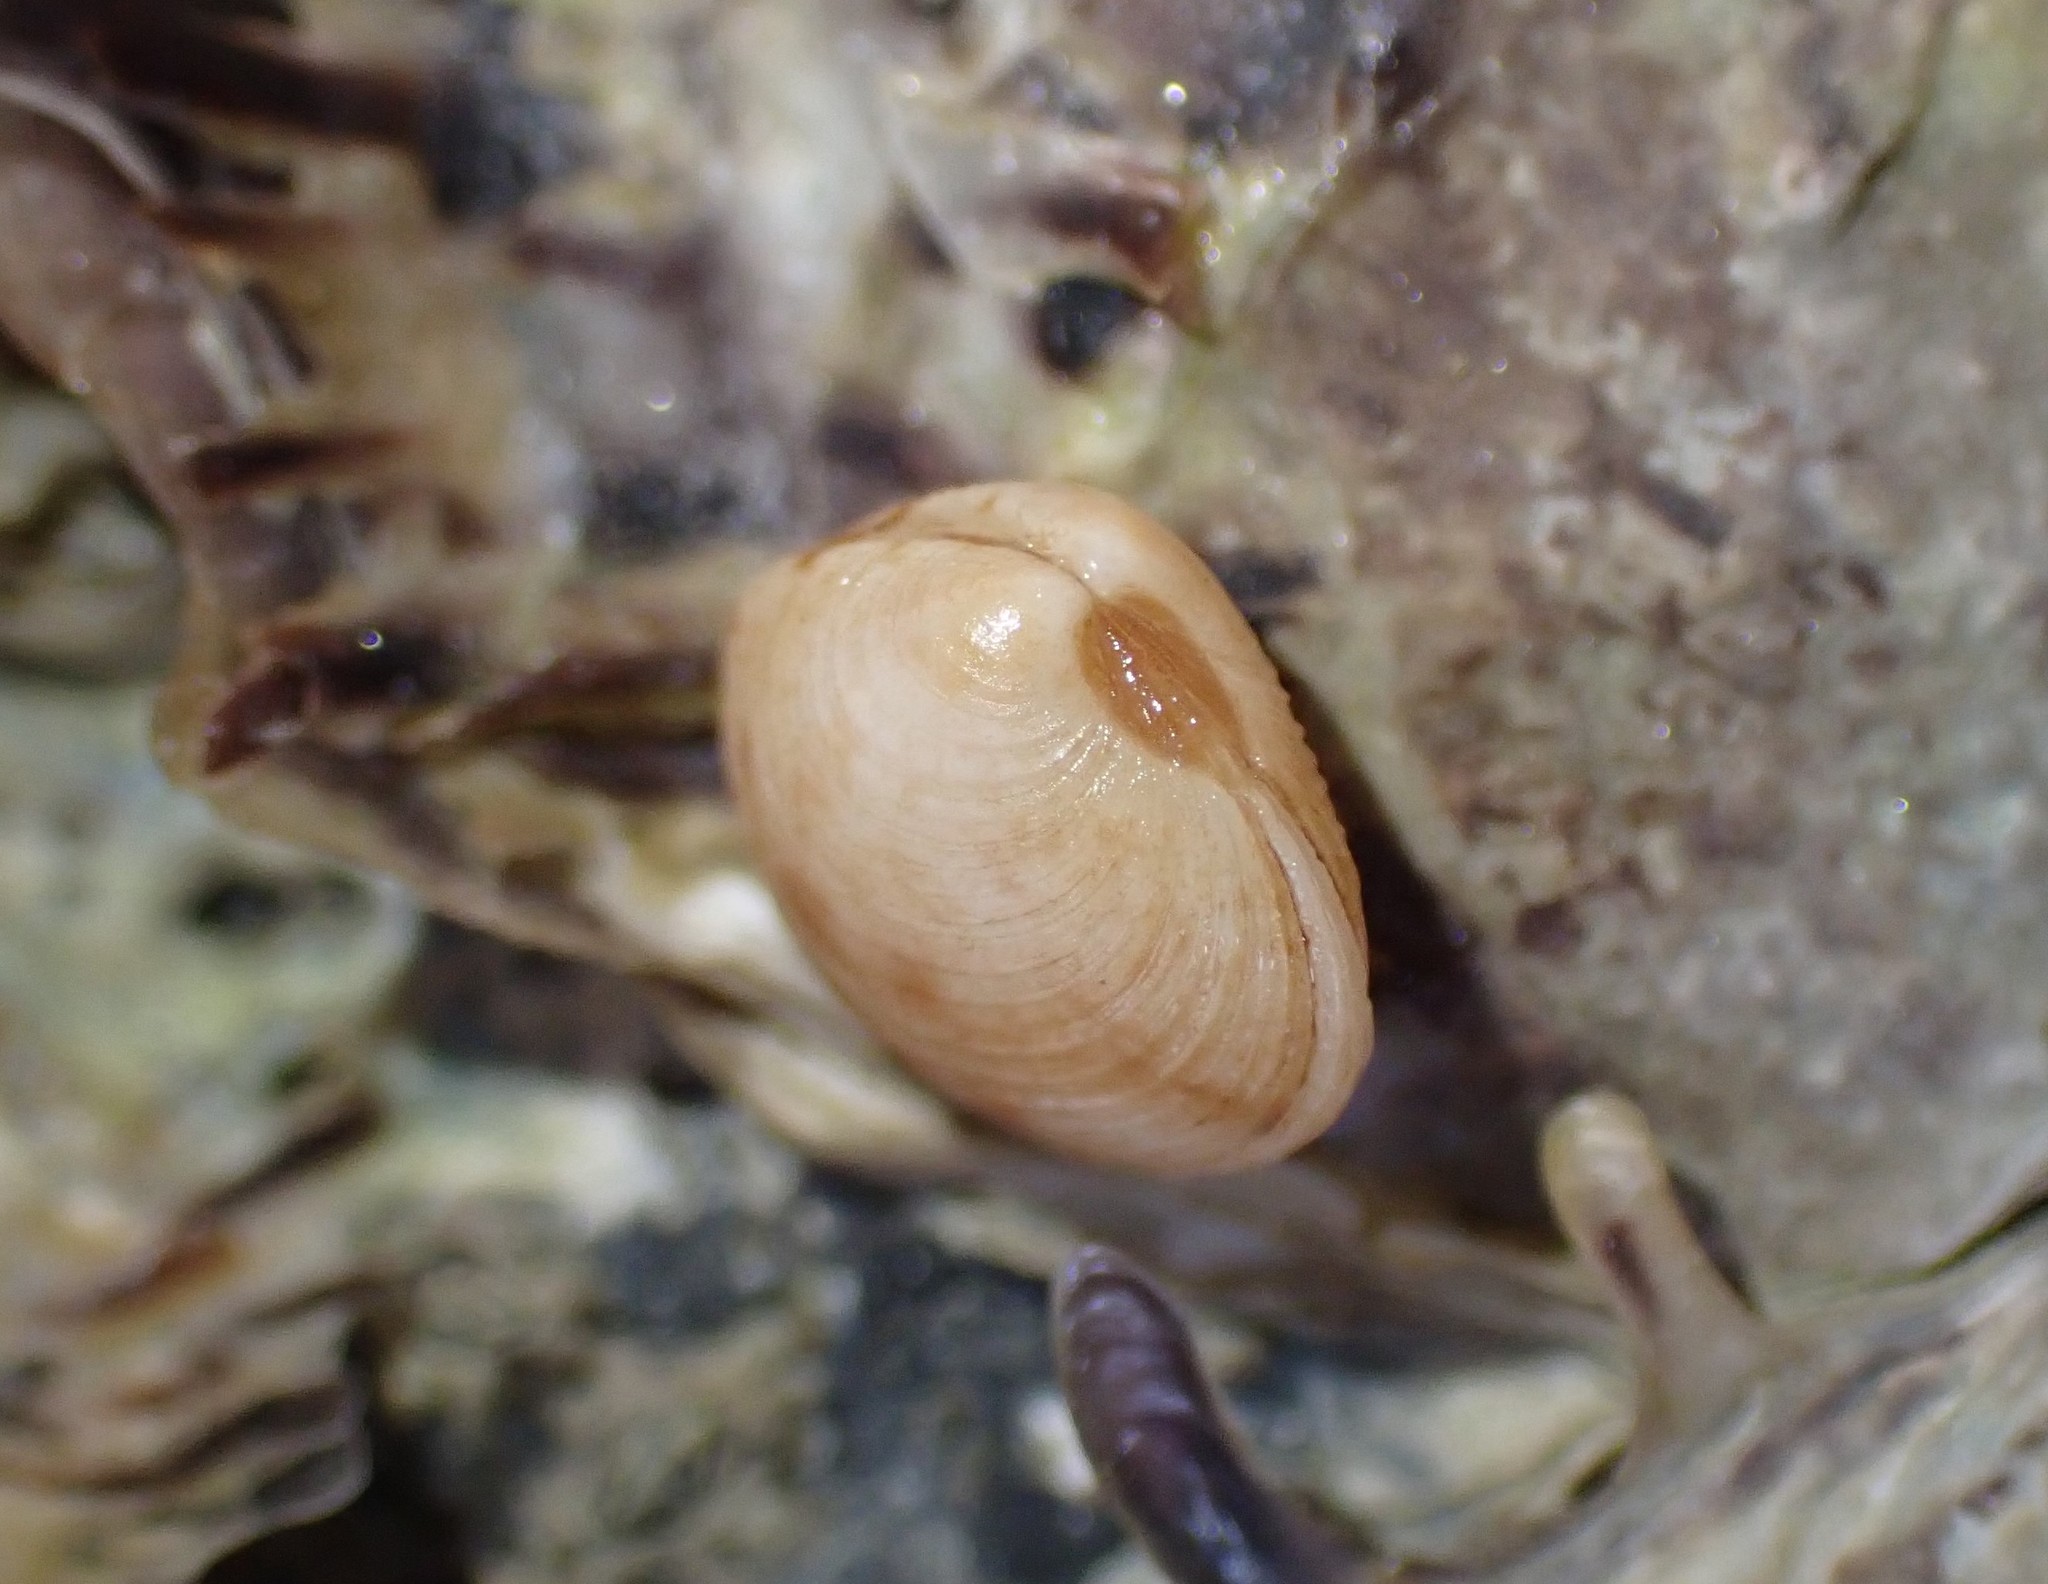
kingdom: Animalia
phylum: Mollusca
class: Bivalvia
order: Venerida
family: Veneridae
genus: Dosina
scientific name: Dosina mactracea
